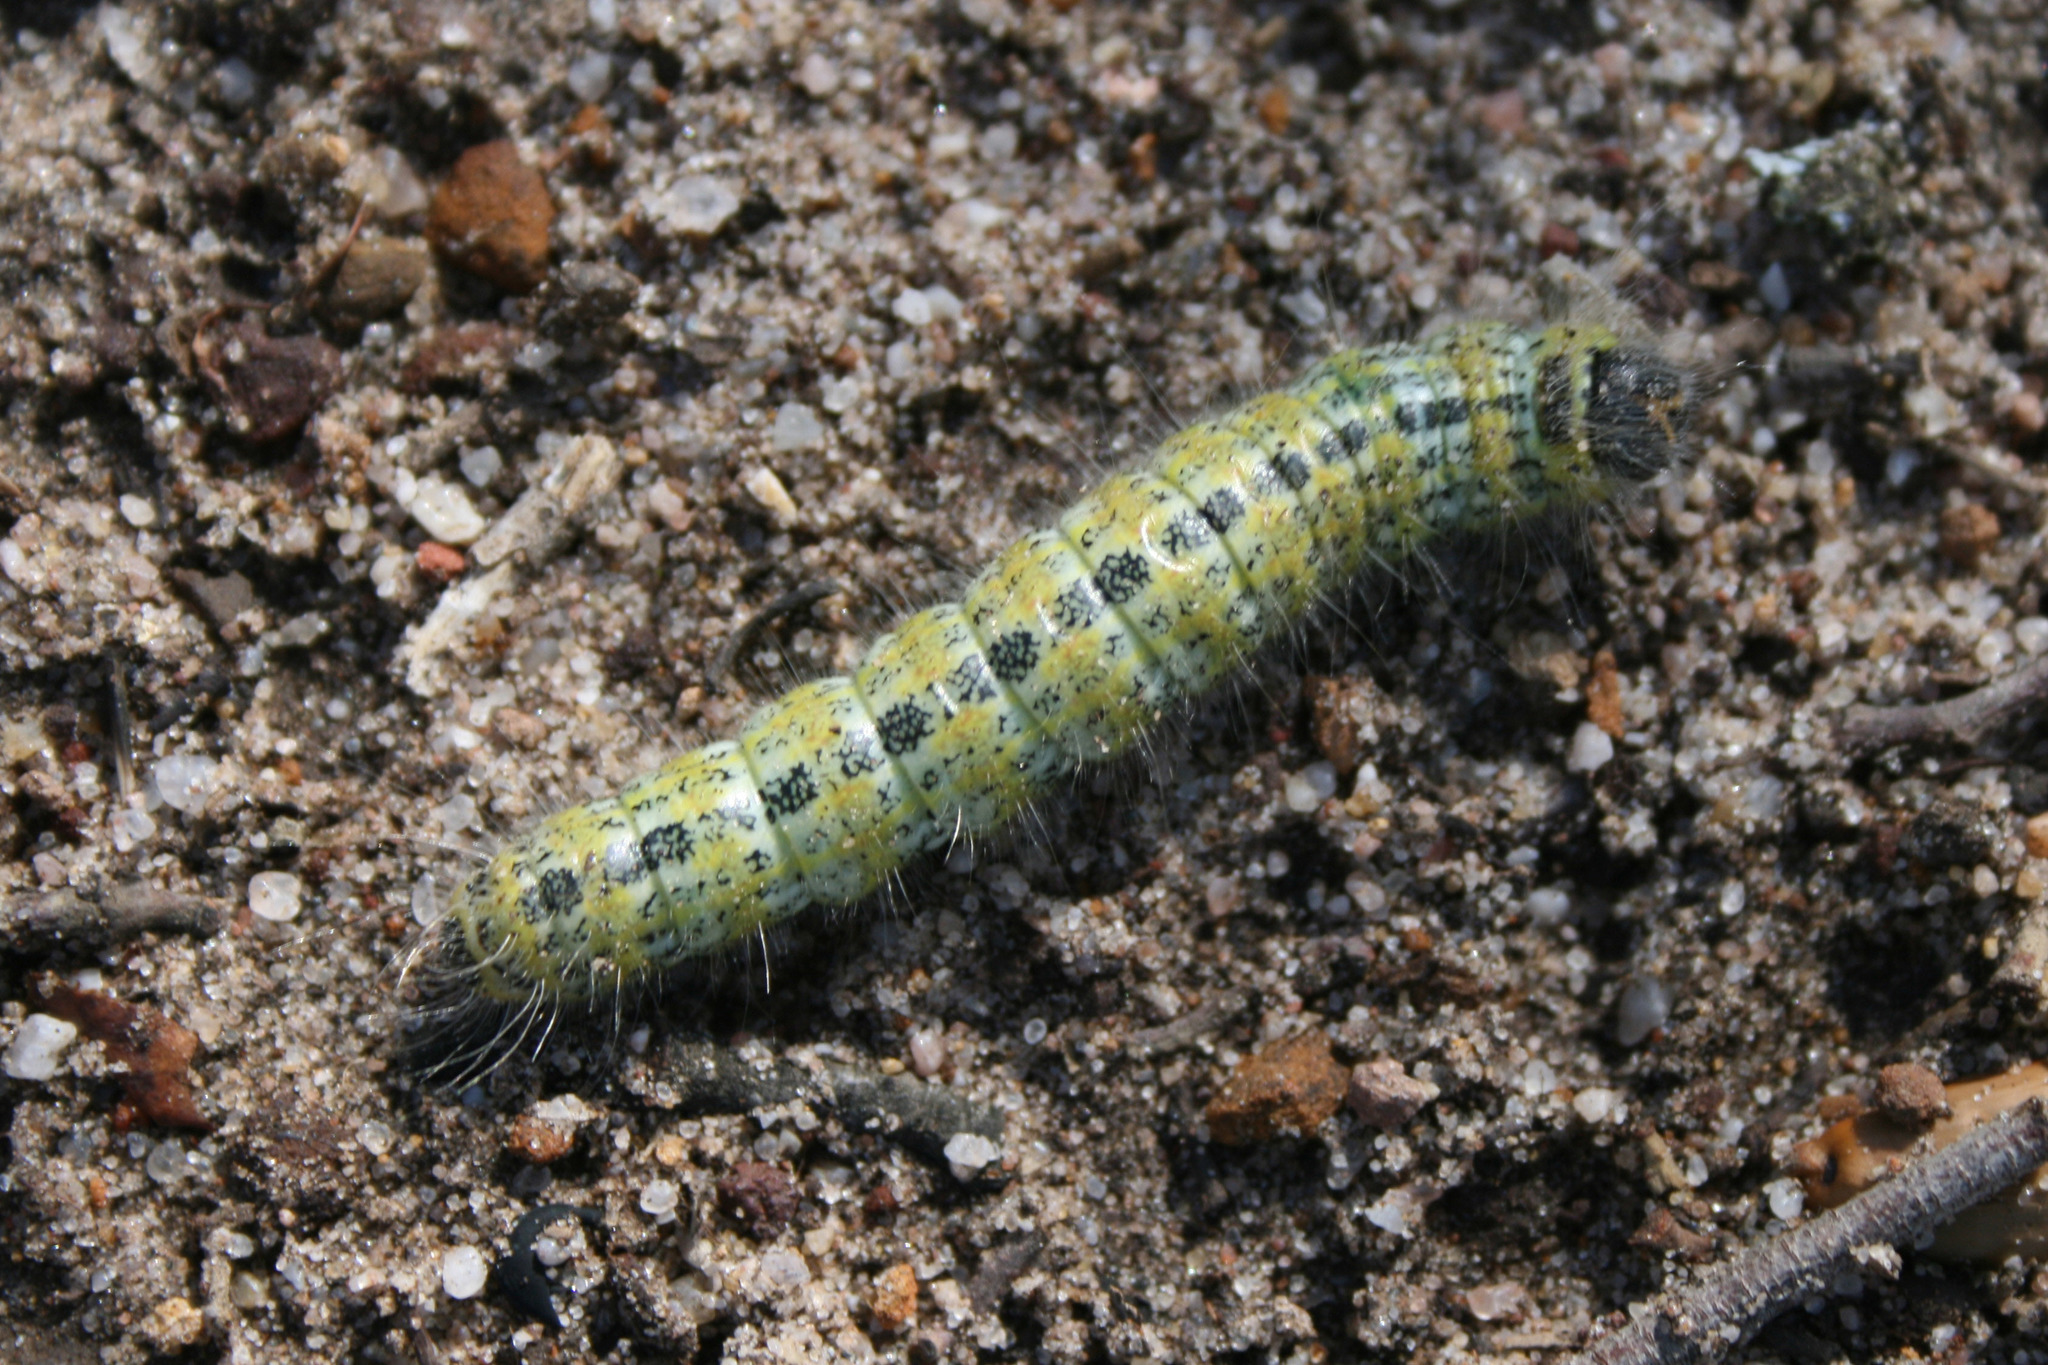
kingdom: Animalia
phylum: Arthropoda
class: Insecta
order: Lepidoptera
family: Notodontidae
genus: Phalera
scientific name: Phalera bucephala
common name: Buff-tip
